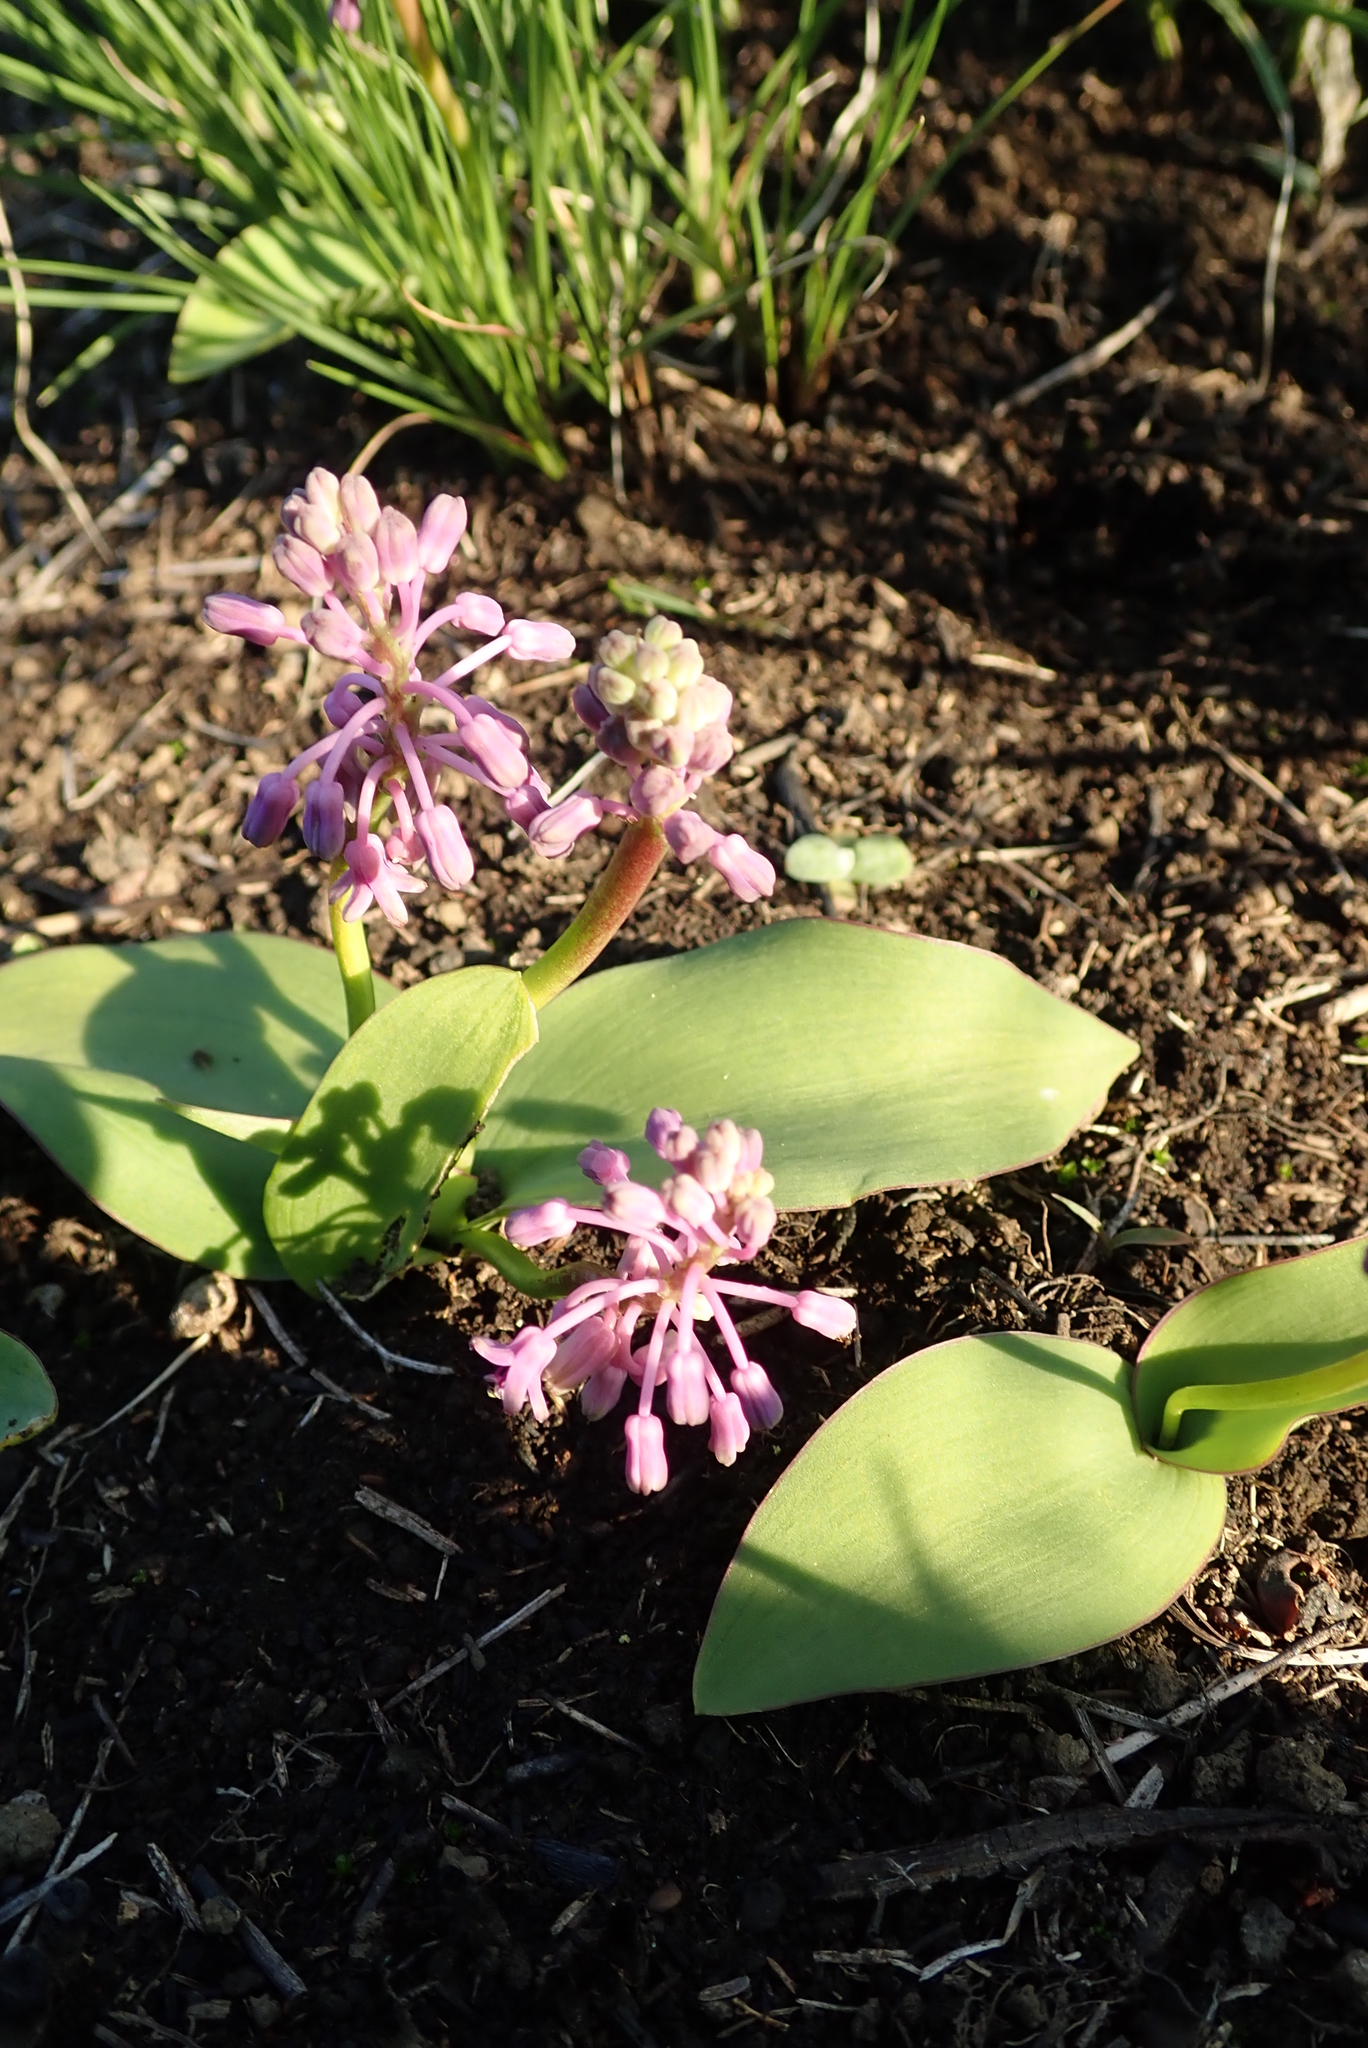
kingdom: Plantae
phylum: Tracheophyta
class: Liliopsida
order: Asparagales
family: Asparagaceae
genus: Ledebouria
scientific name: Ledebouria sandersonii
